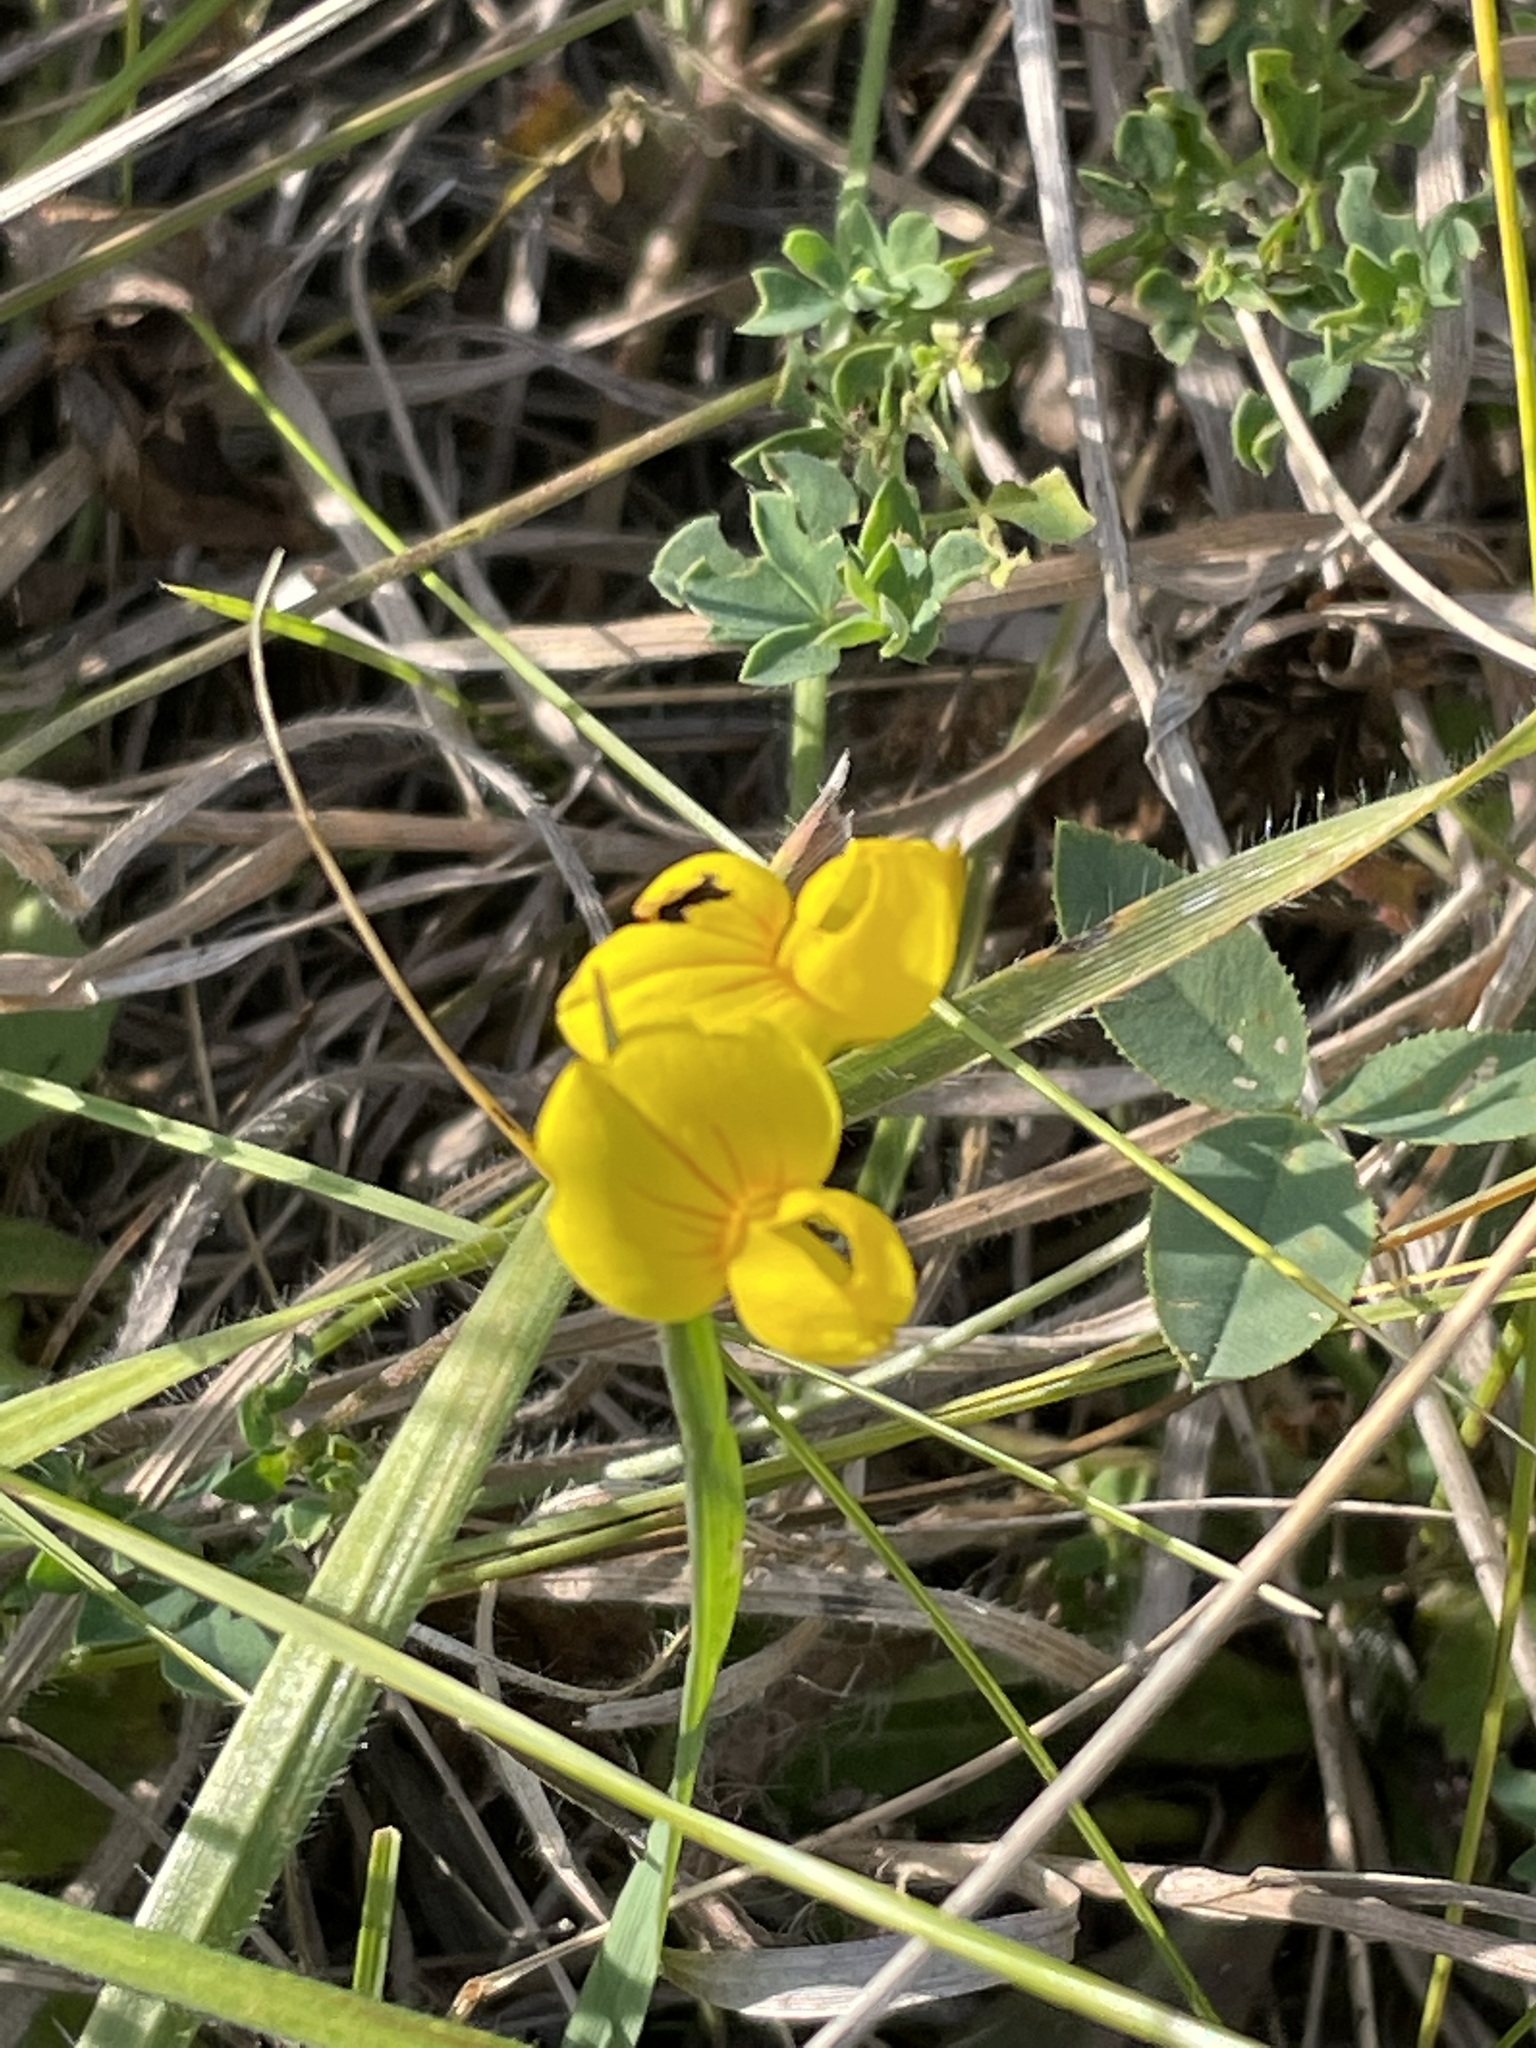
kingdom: Plantae
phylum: Tracheophyta
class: Magnoliopsida
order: Fabales
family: Fabaceae
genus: Lotus
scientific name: Lotus corniculatus
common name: Common bird's-foot-trefoil
